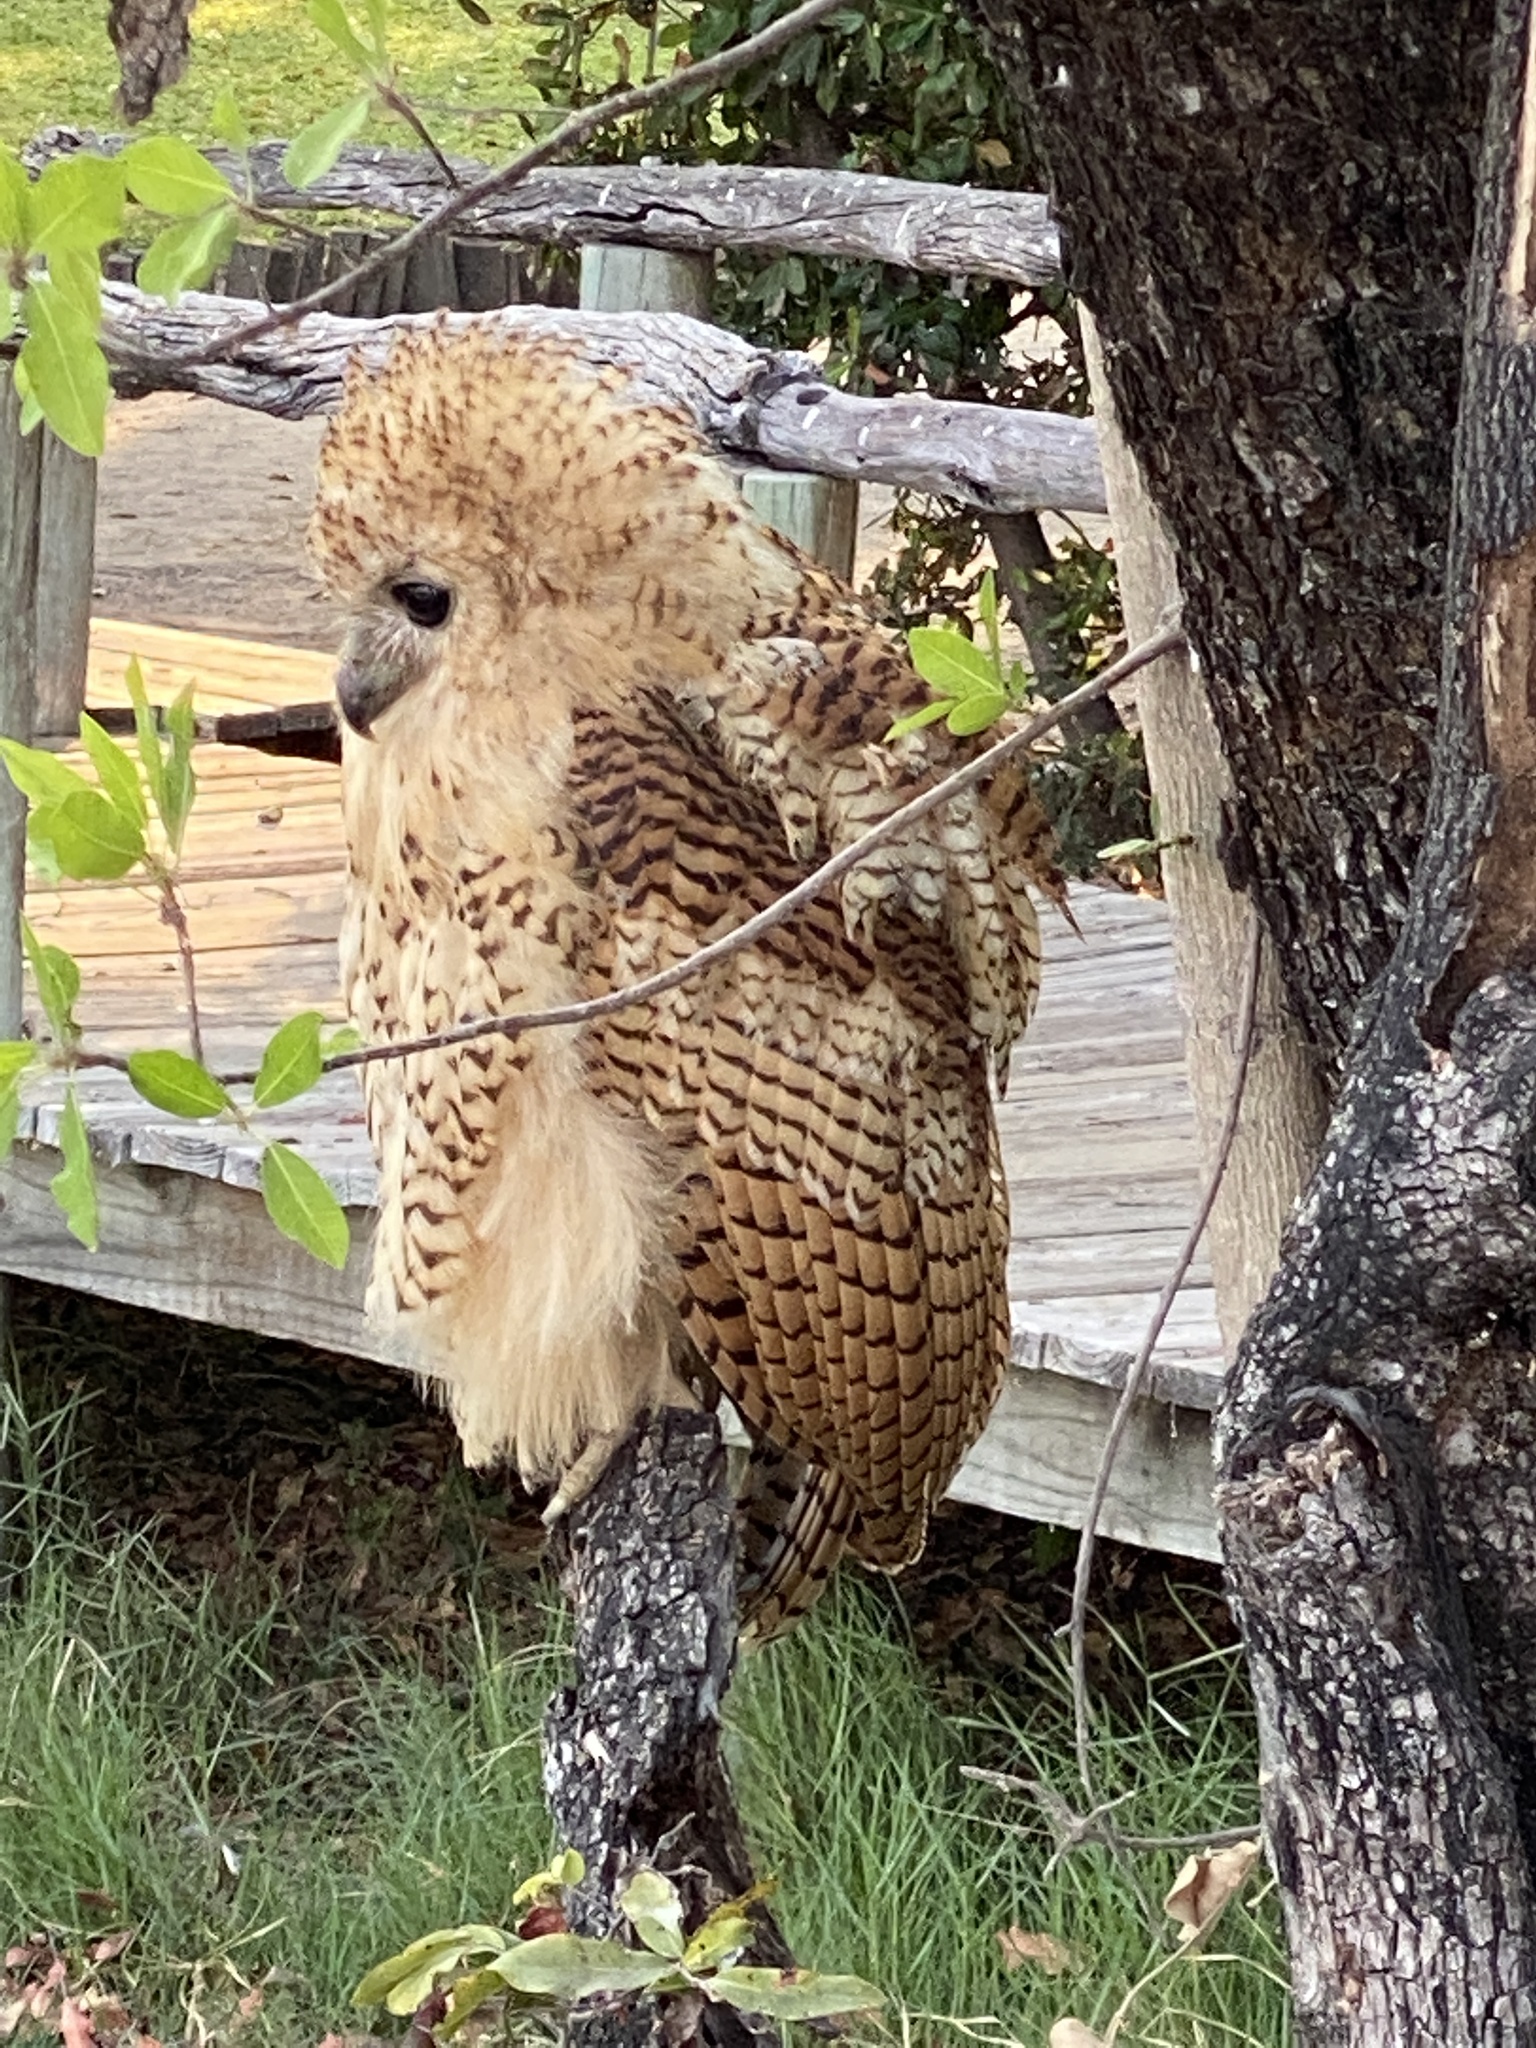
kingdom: Animalia
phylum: Chordata
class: Aves
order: Strigiformes
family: Strigidae
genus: Scotopelia
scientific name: Scotopelia peli
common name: Pel's fishing owl
